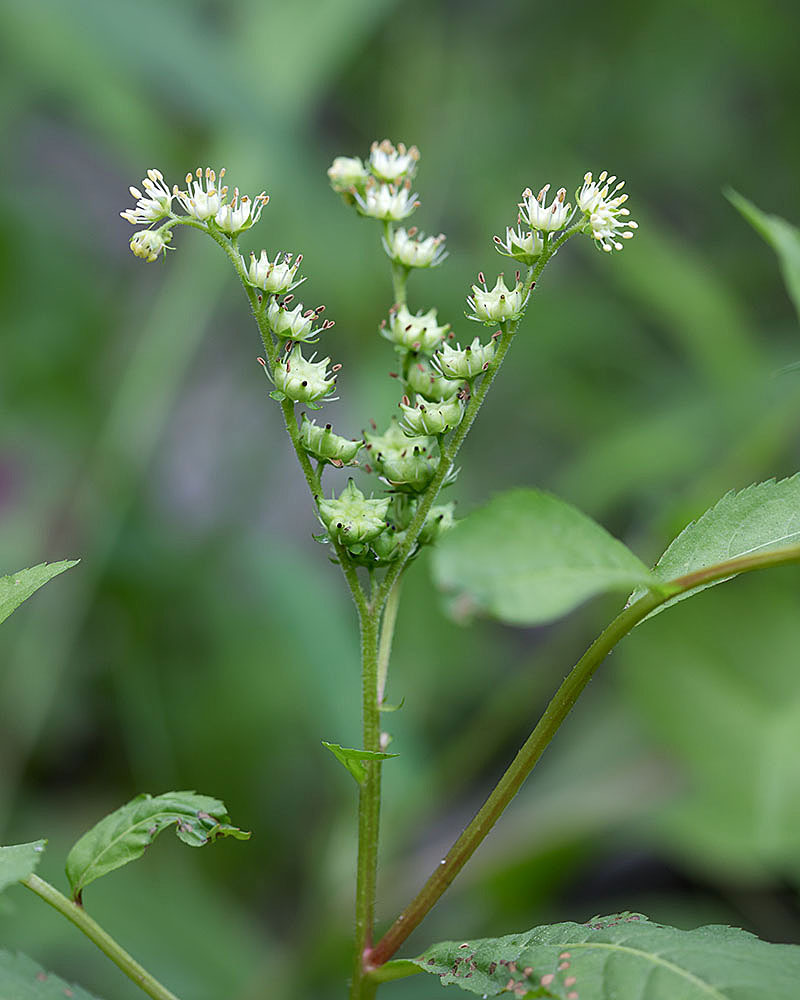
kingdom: Plantae
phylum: Tracheophyta
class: Magnoliopsida
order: Saxifragales
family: Penthoraceae
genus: Penthorum
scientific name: Penthorum sedoides
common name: Ditch stonecrop
